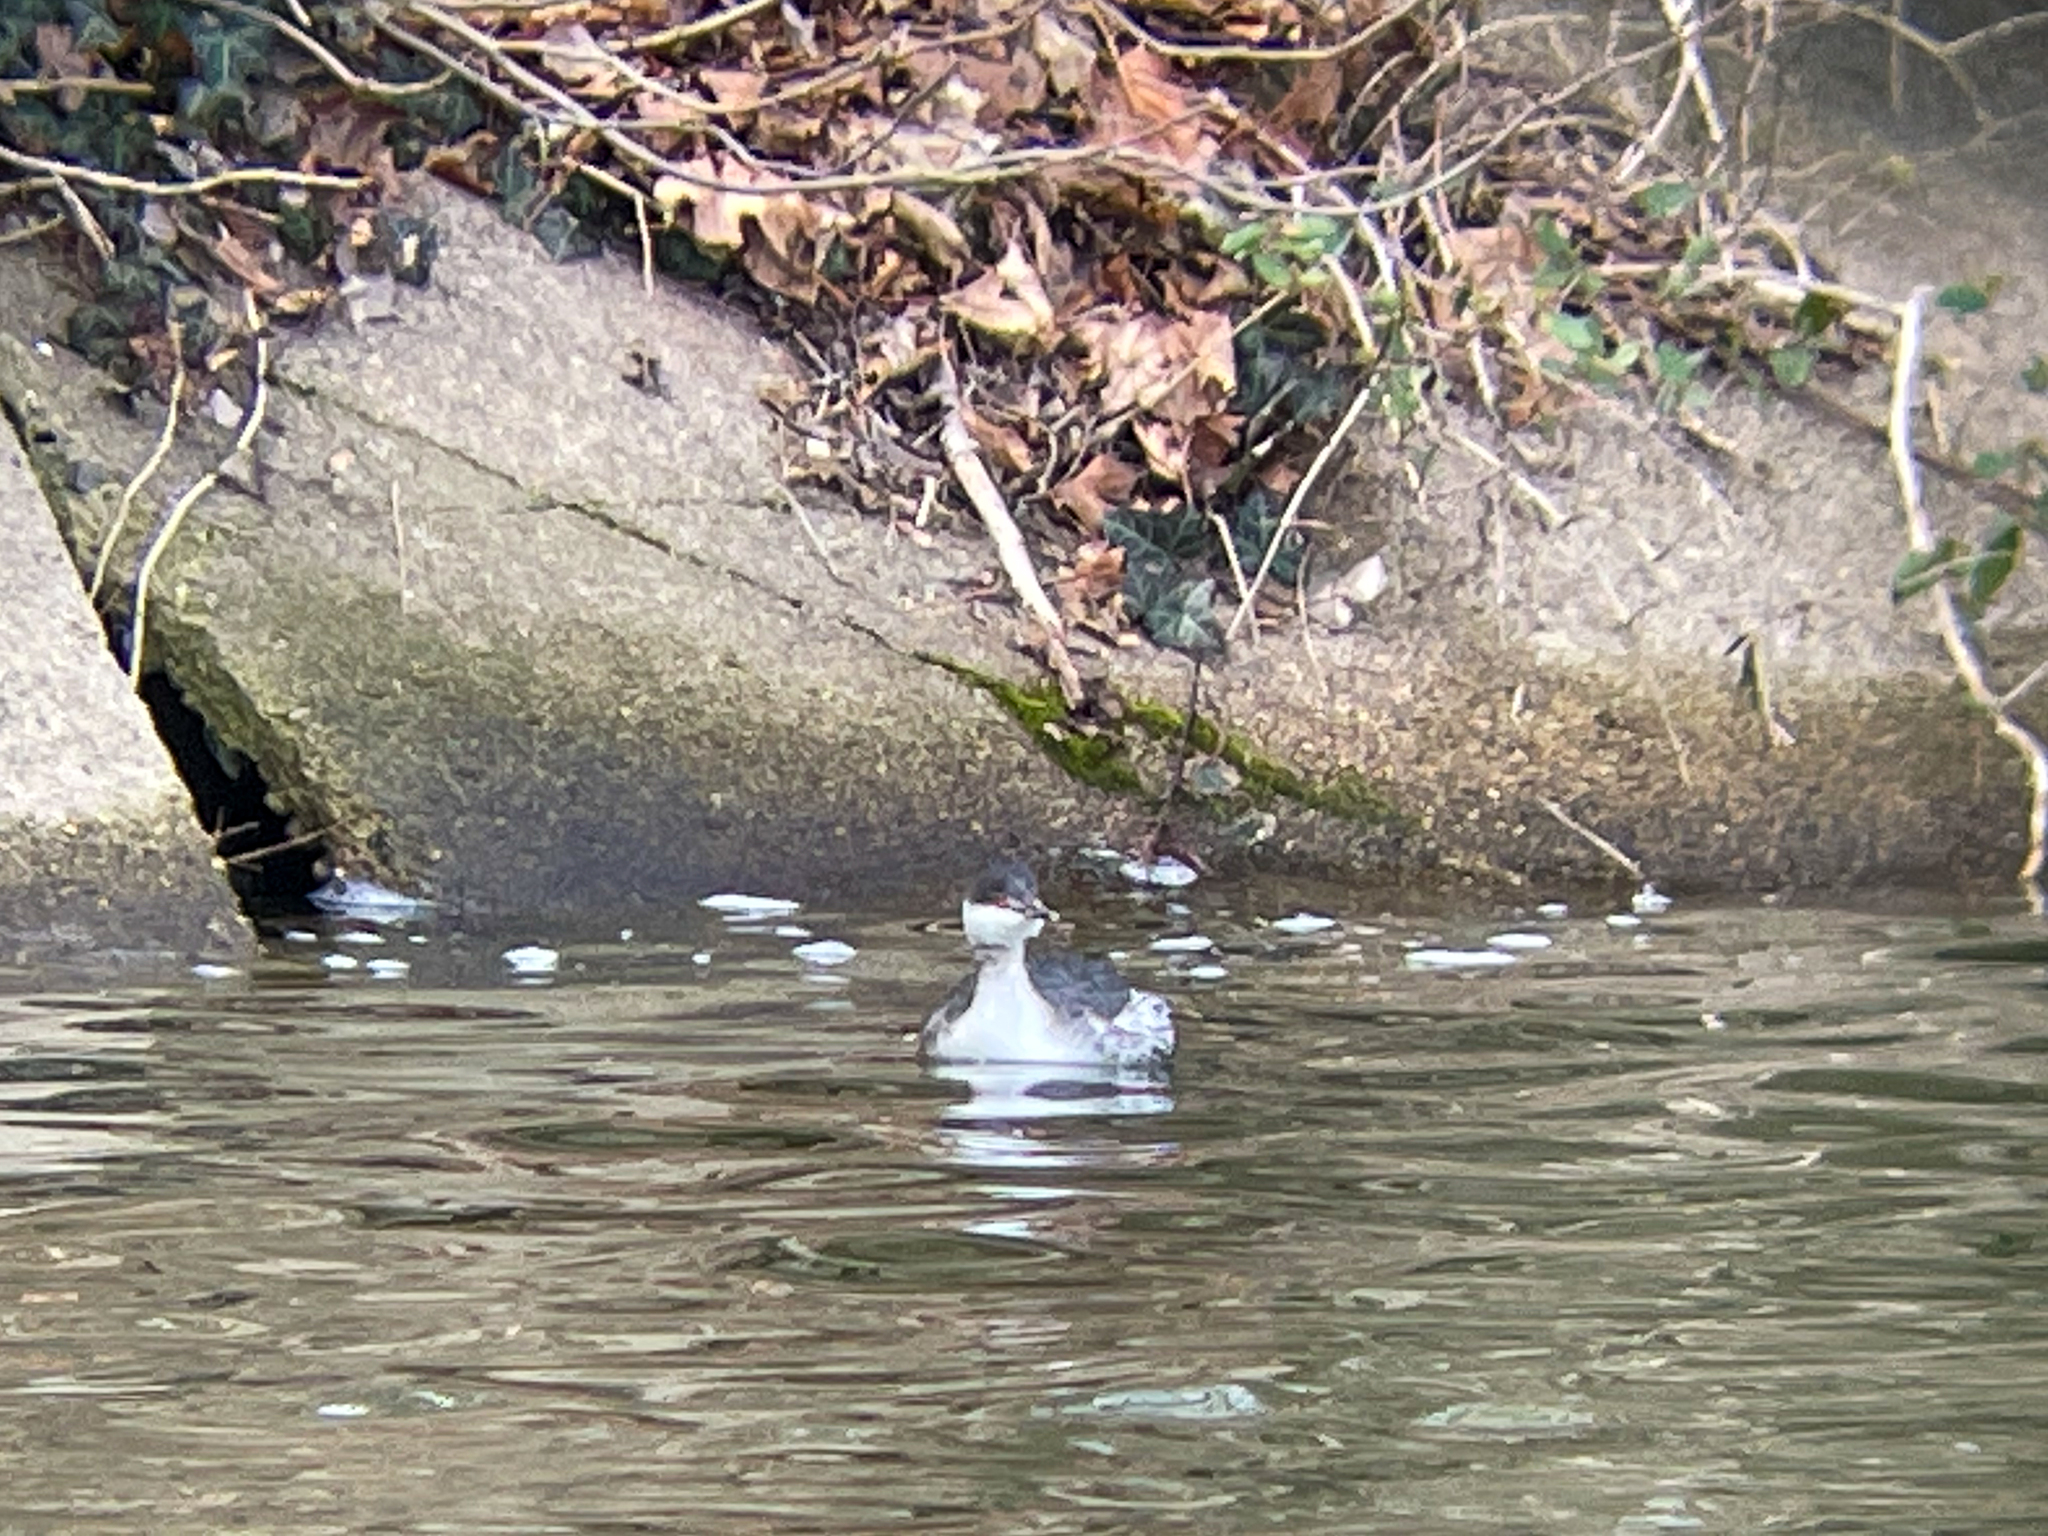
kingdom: Animalia
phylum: Chordata
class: Aves
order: Podicipediformes
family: Podicipedidae
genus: Podiceps
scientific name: Podiceps auritus
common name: Horned grebe
